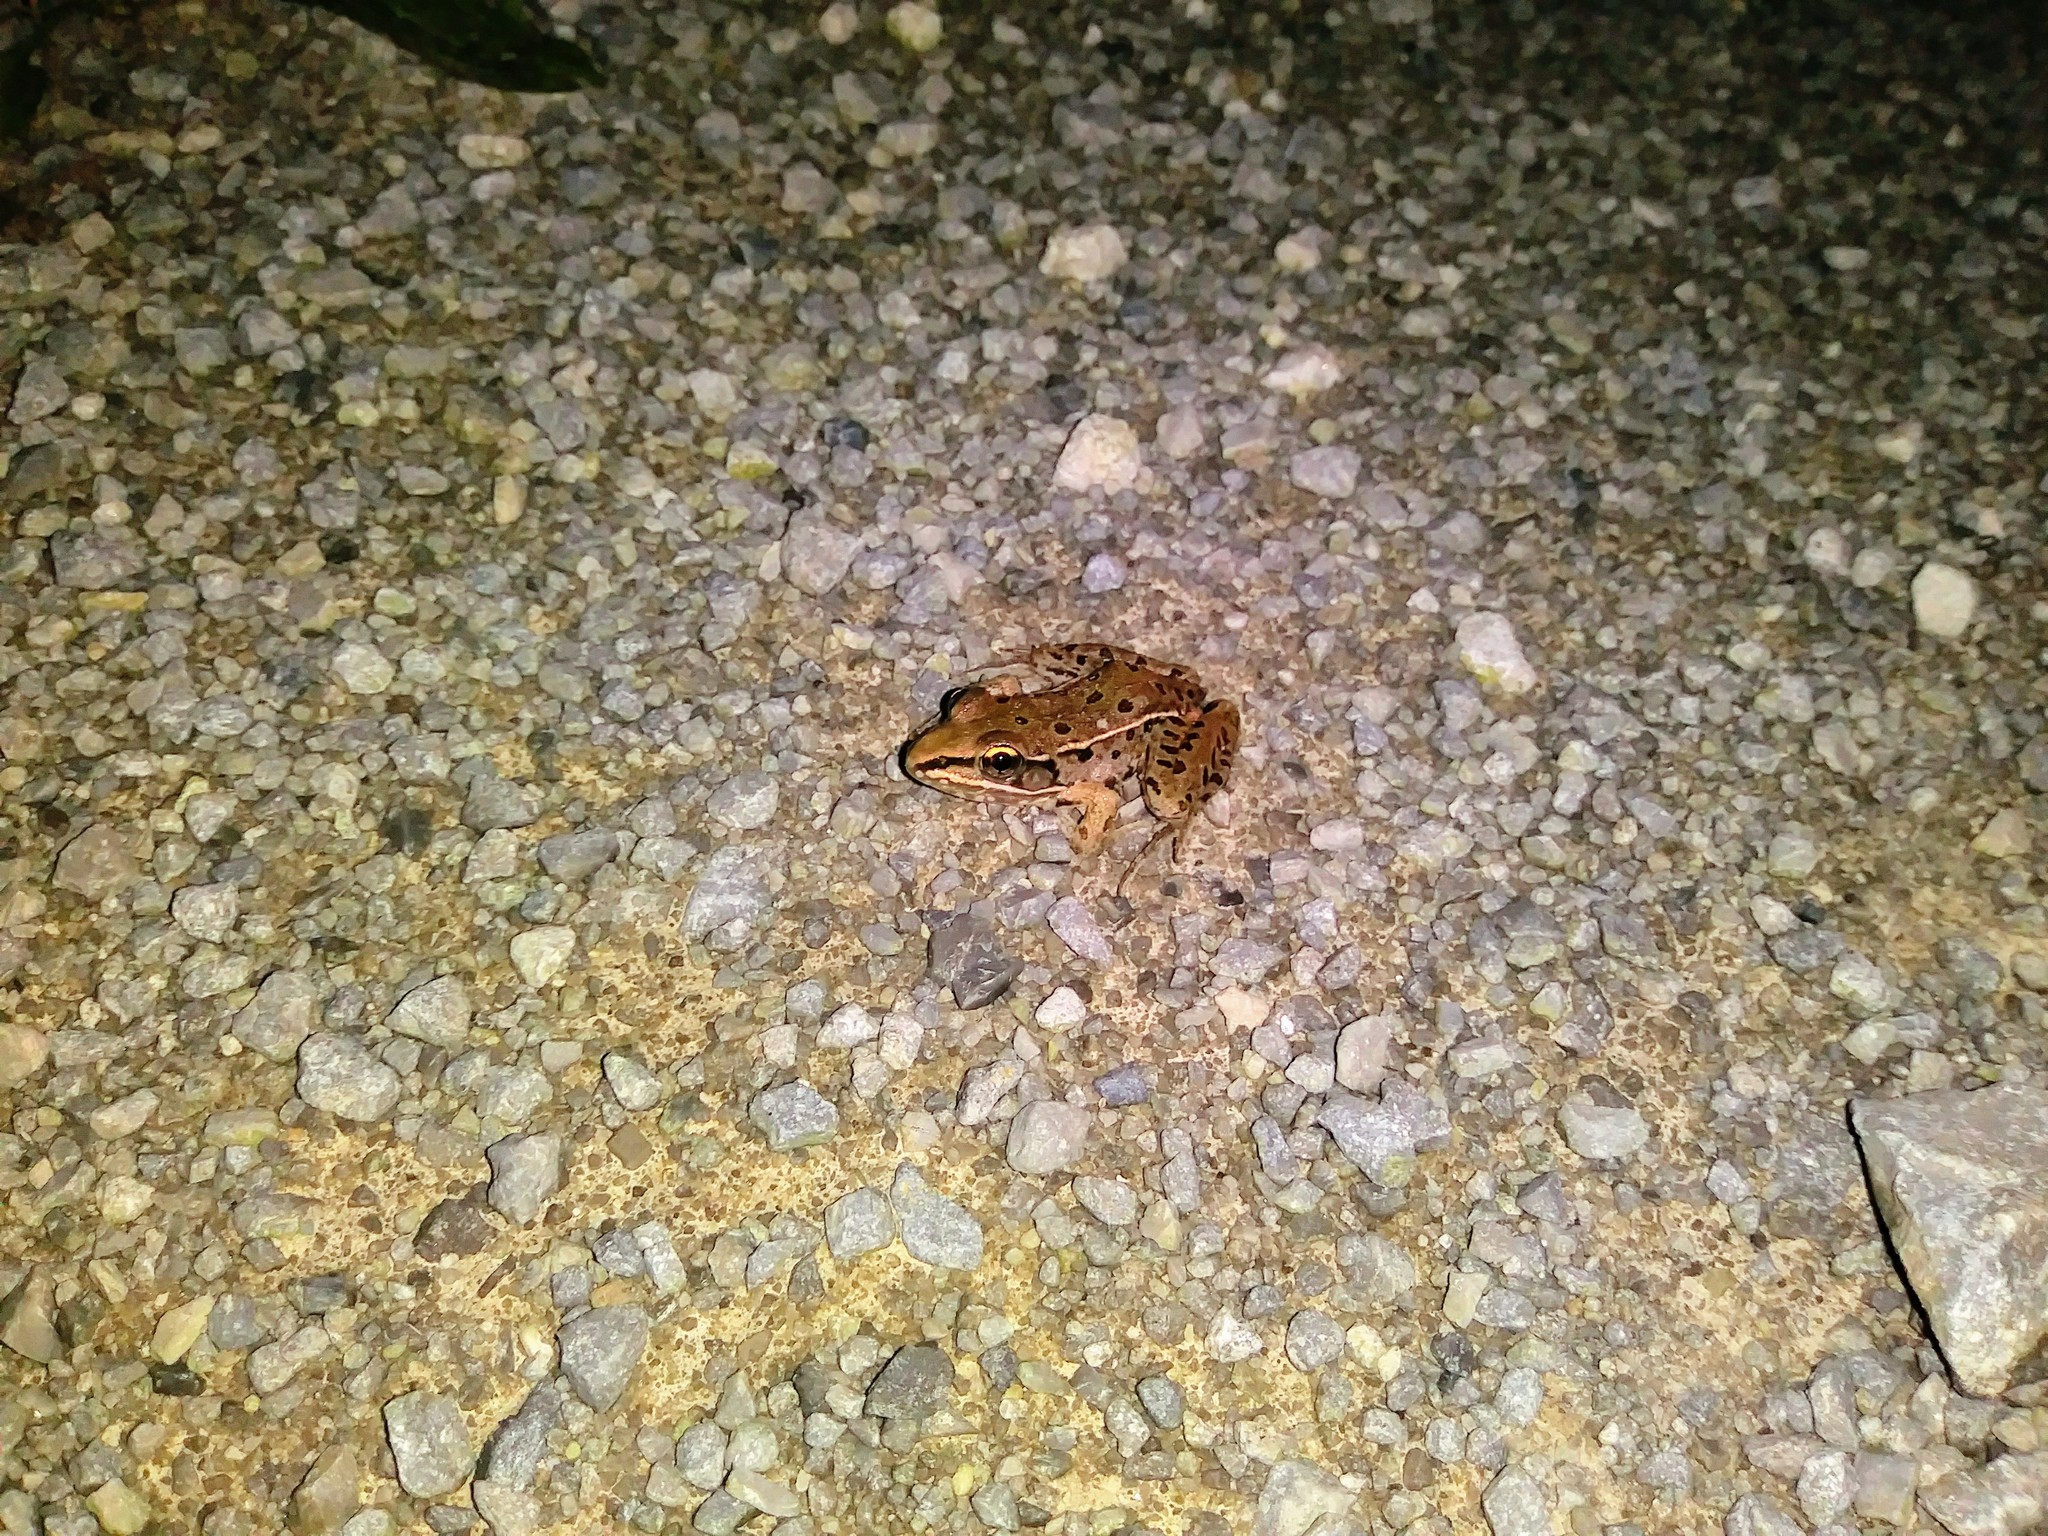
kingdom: Animalia
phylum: Chordata
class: Amphibia
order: Anura
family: Ranidae
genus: Lithobates
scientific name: Lithobates sphenocephalus
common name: Southern leopard frog
